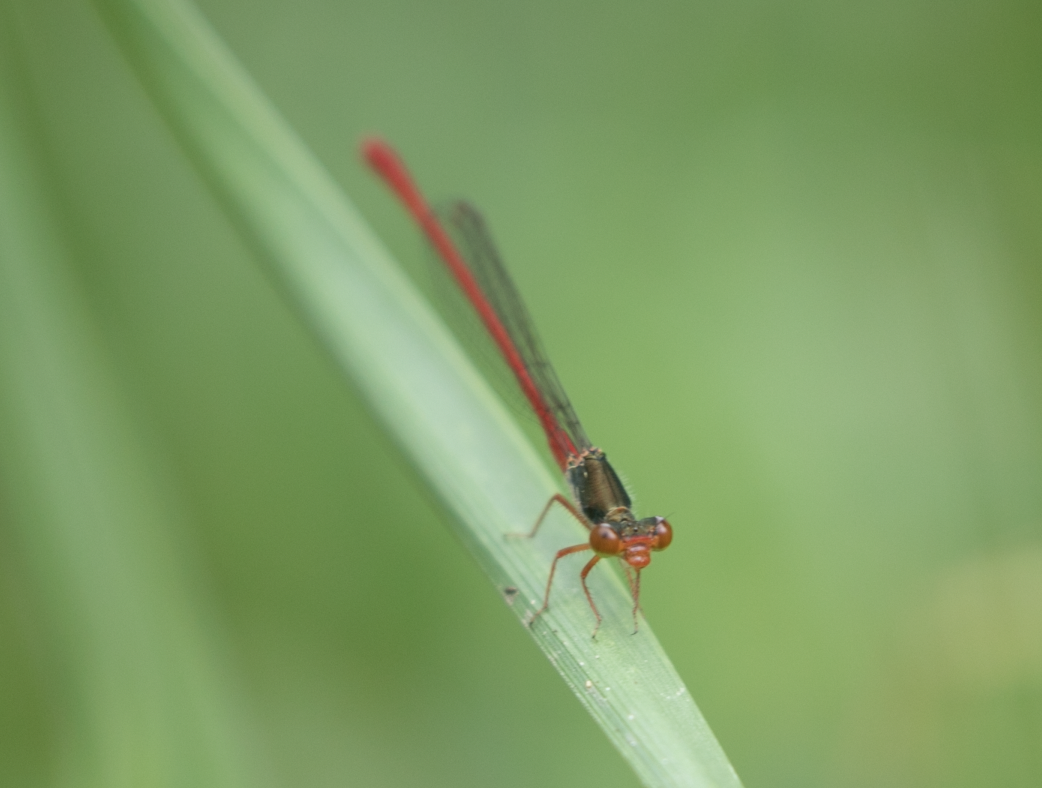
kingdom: Animalia
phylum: Arthropoda
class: Insecta
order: Odonata
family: Coenagrionidae
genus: Ceriagrion
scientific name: Ceriagrion tenellum
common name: Small red damselfly
